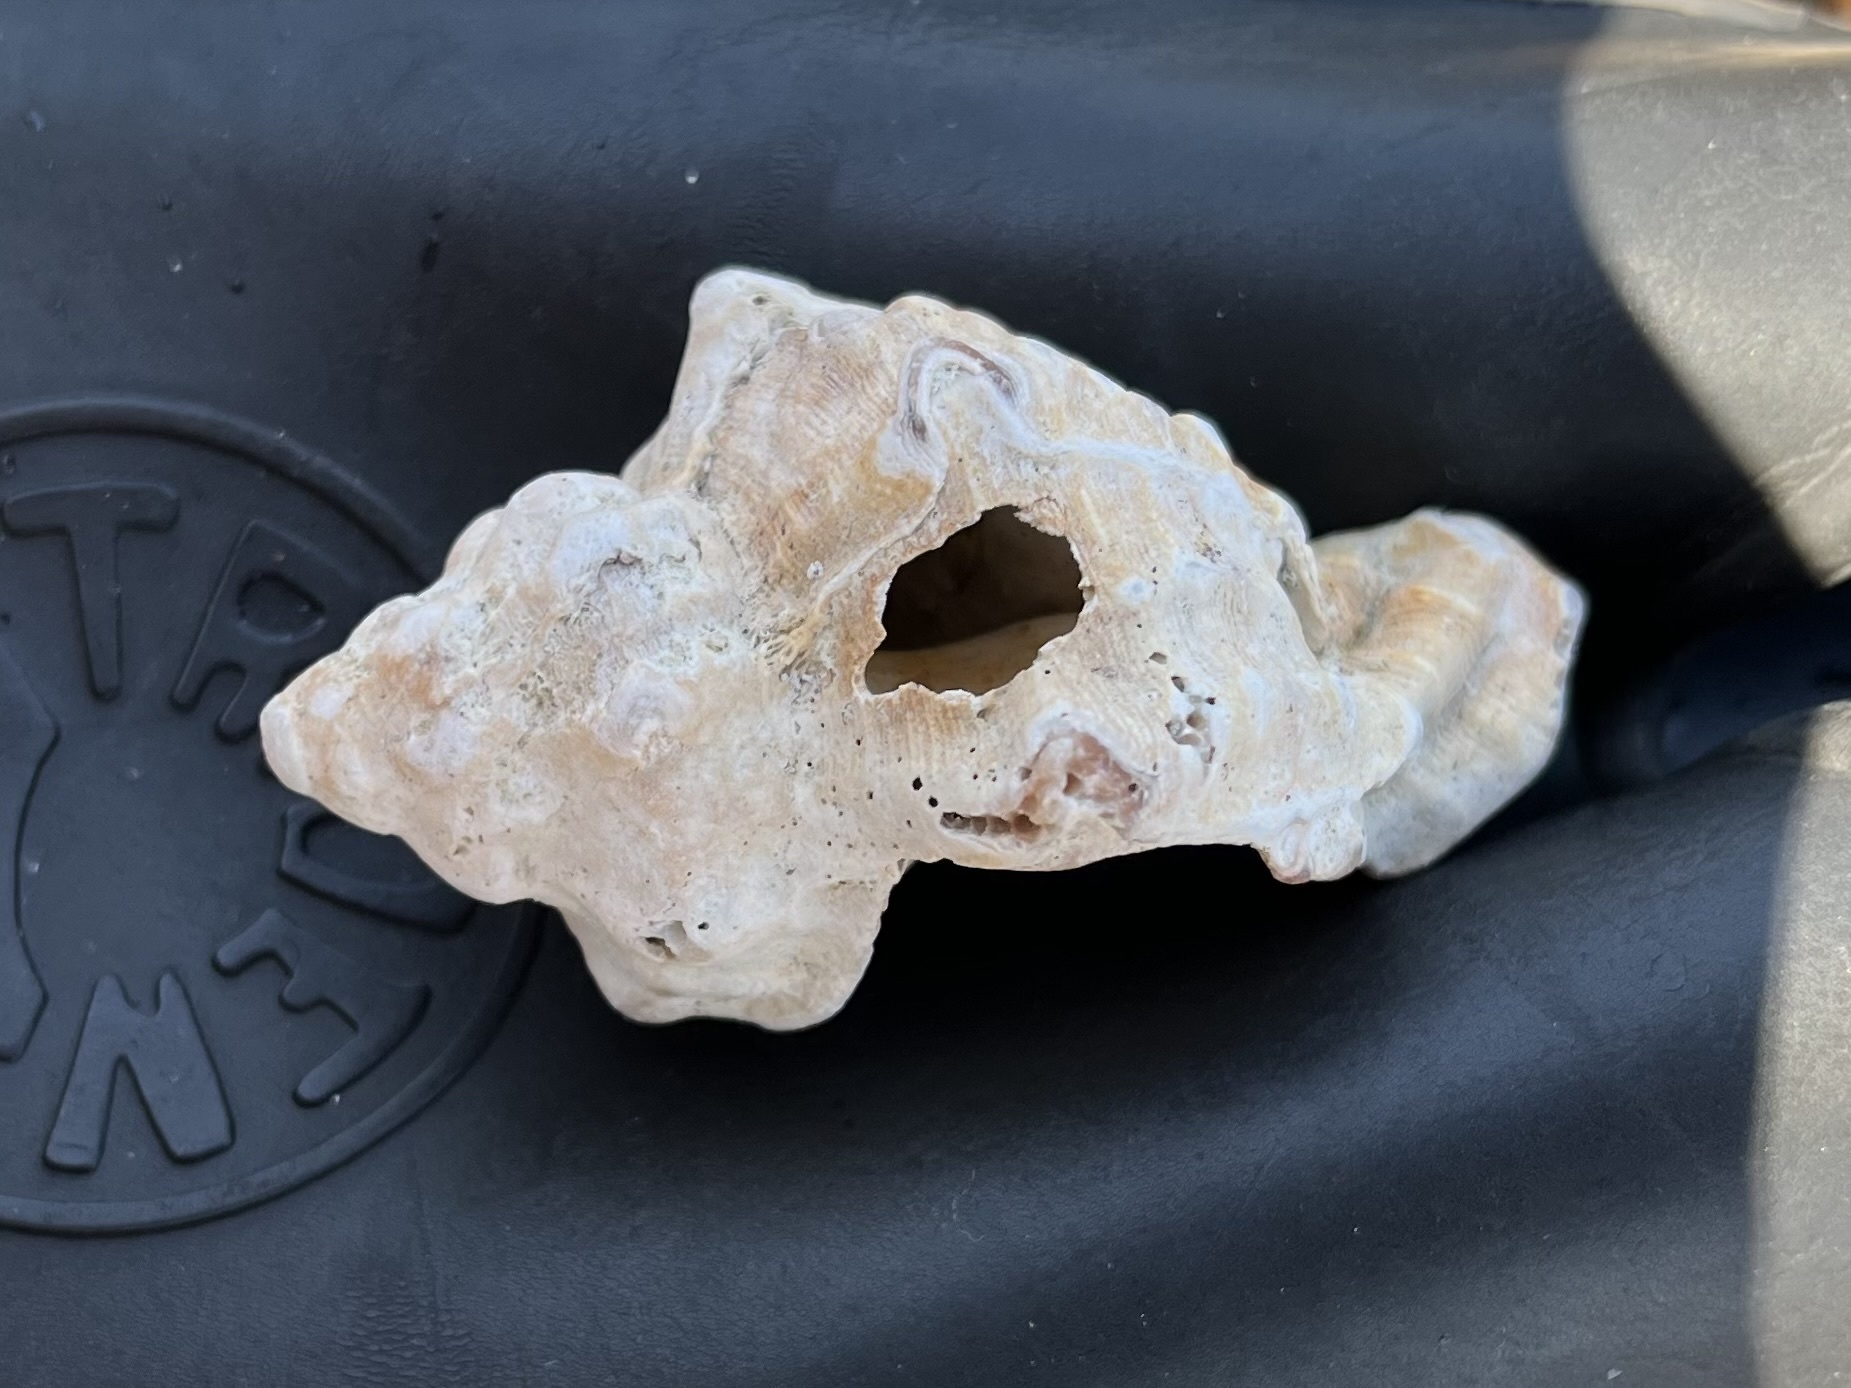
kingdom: Animalia
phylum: Mollusca
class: Gastropoda
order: Neogastropoda
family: Muricidae
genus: Hexaplex
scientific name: Hexaplex trunculus
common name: Banded dye-murex
